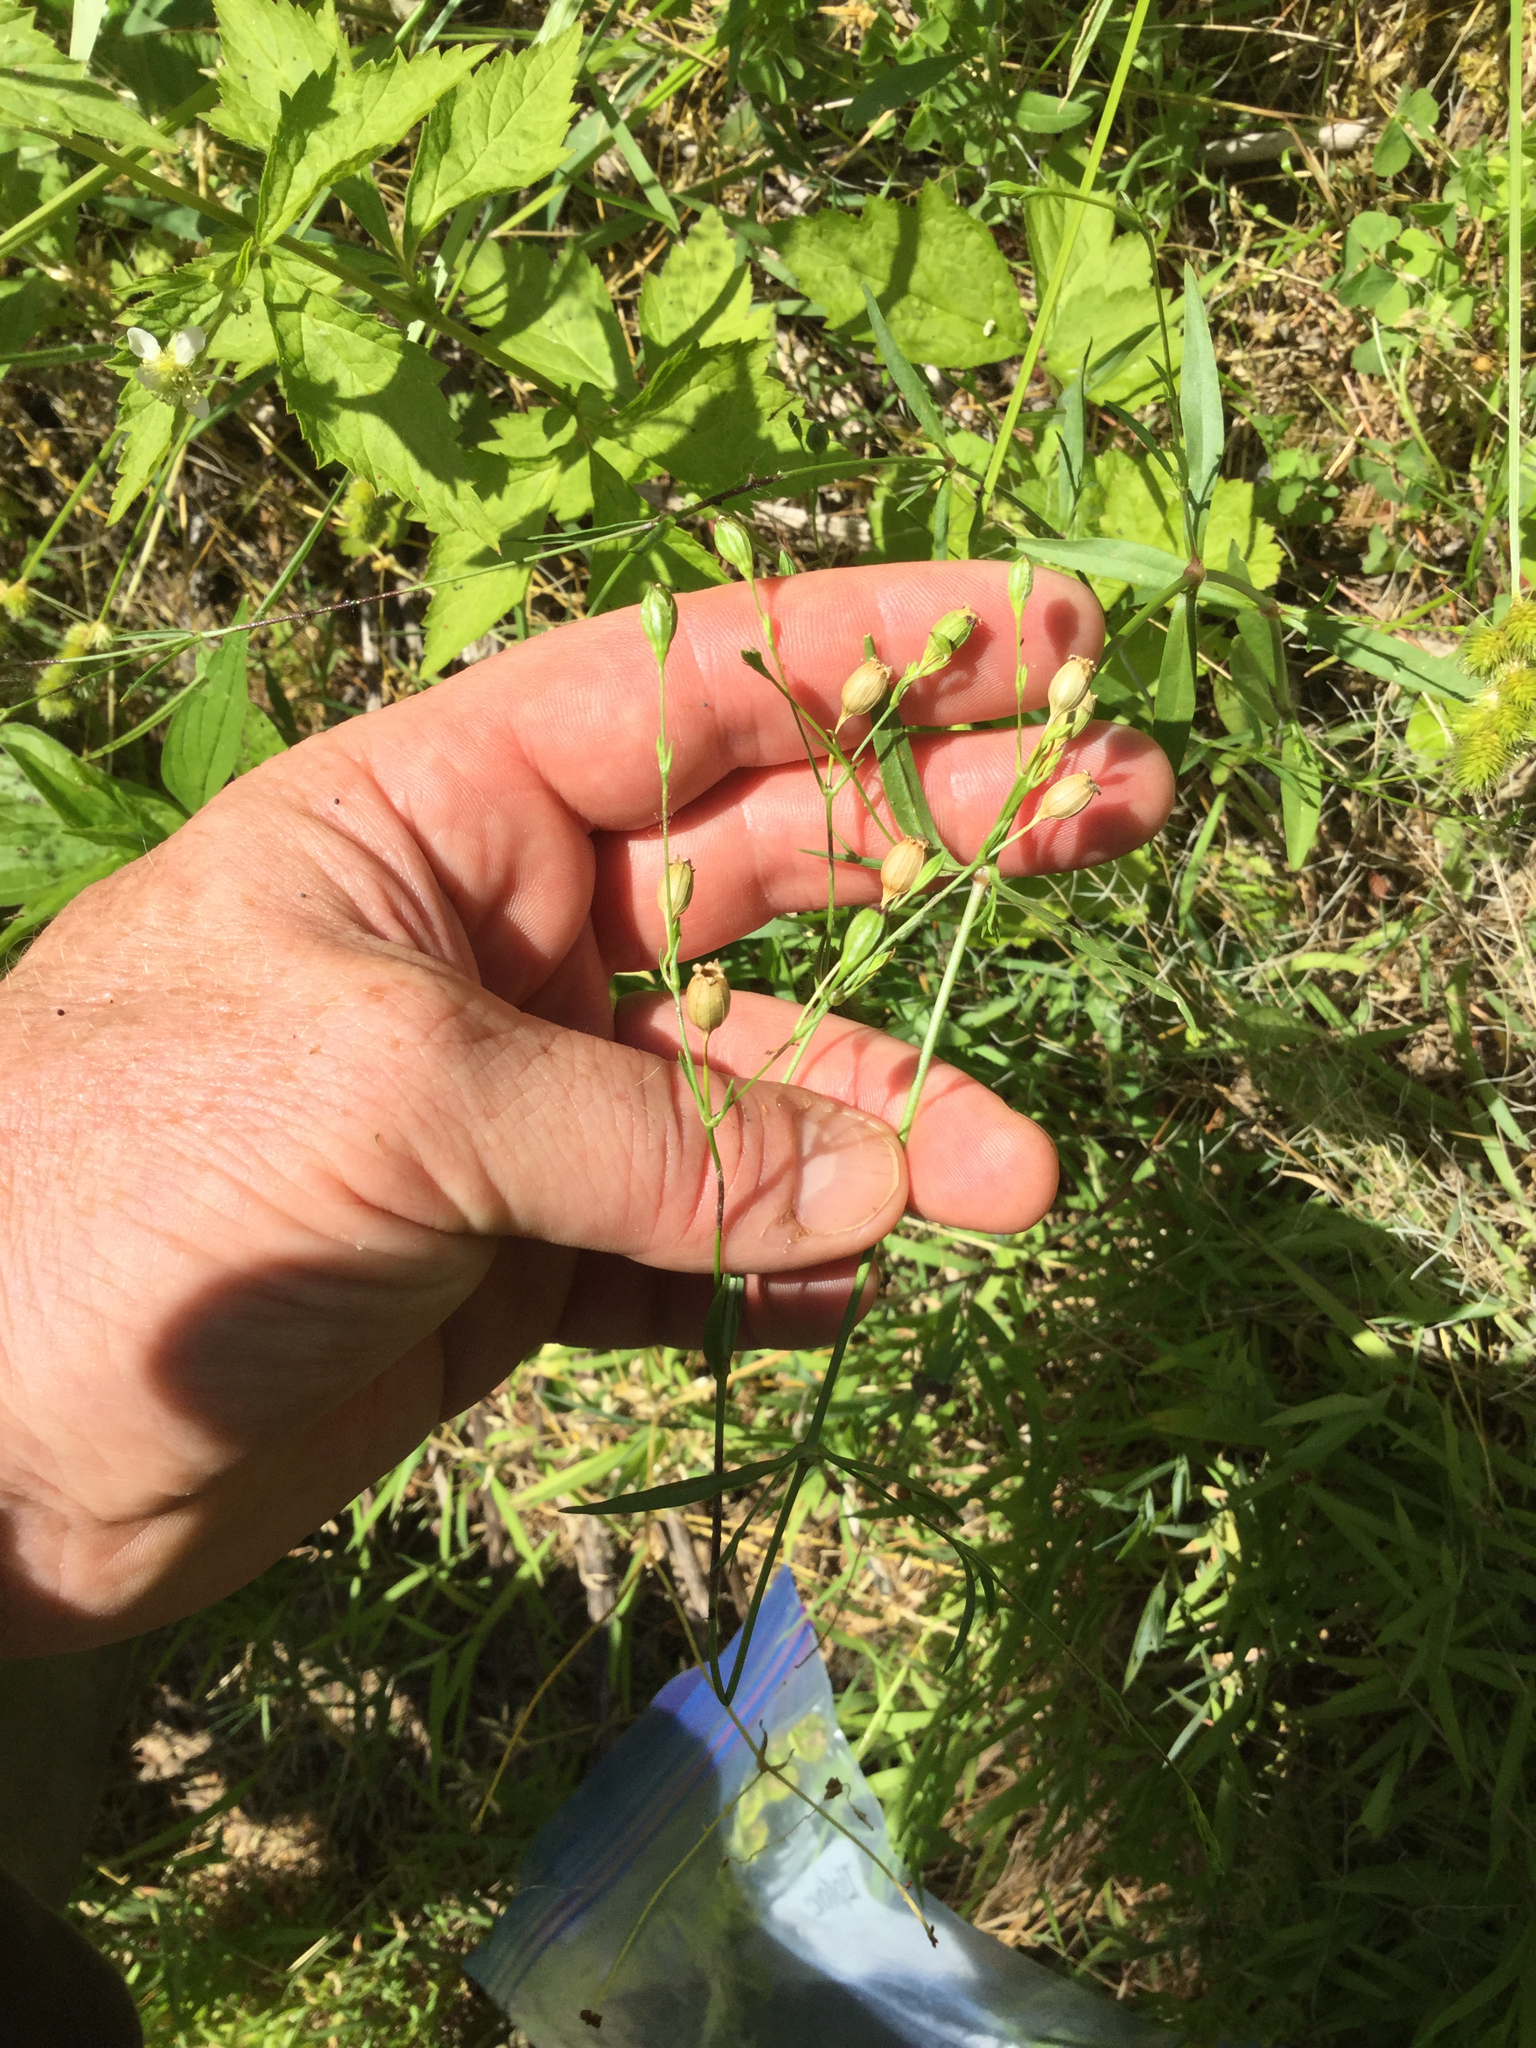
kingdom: Plantae
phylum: Tracheophyta
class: Magnoliopsida
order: Caryophyllales
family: Caryophyllaceae
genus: Silene
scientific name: Silene antirrhina
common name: Sleepy catchfly
